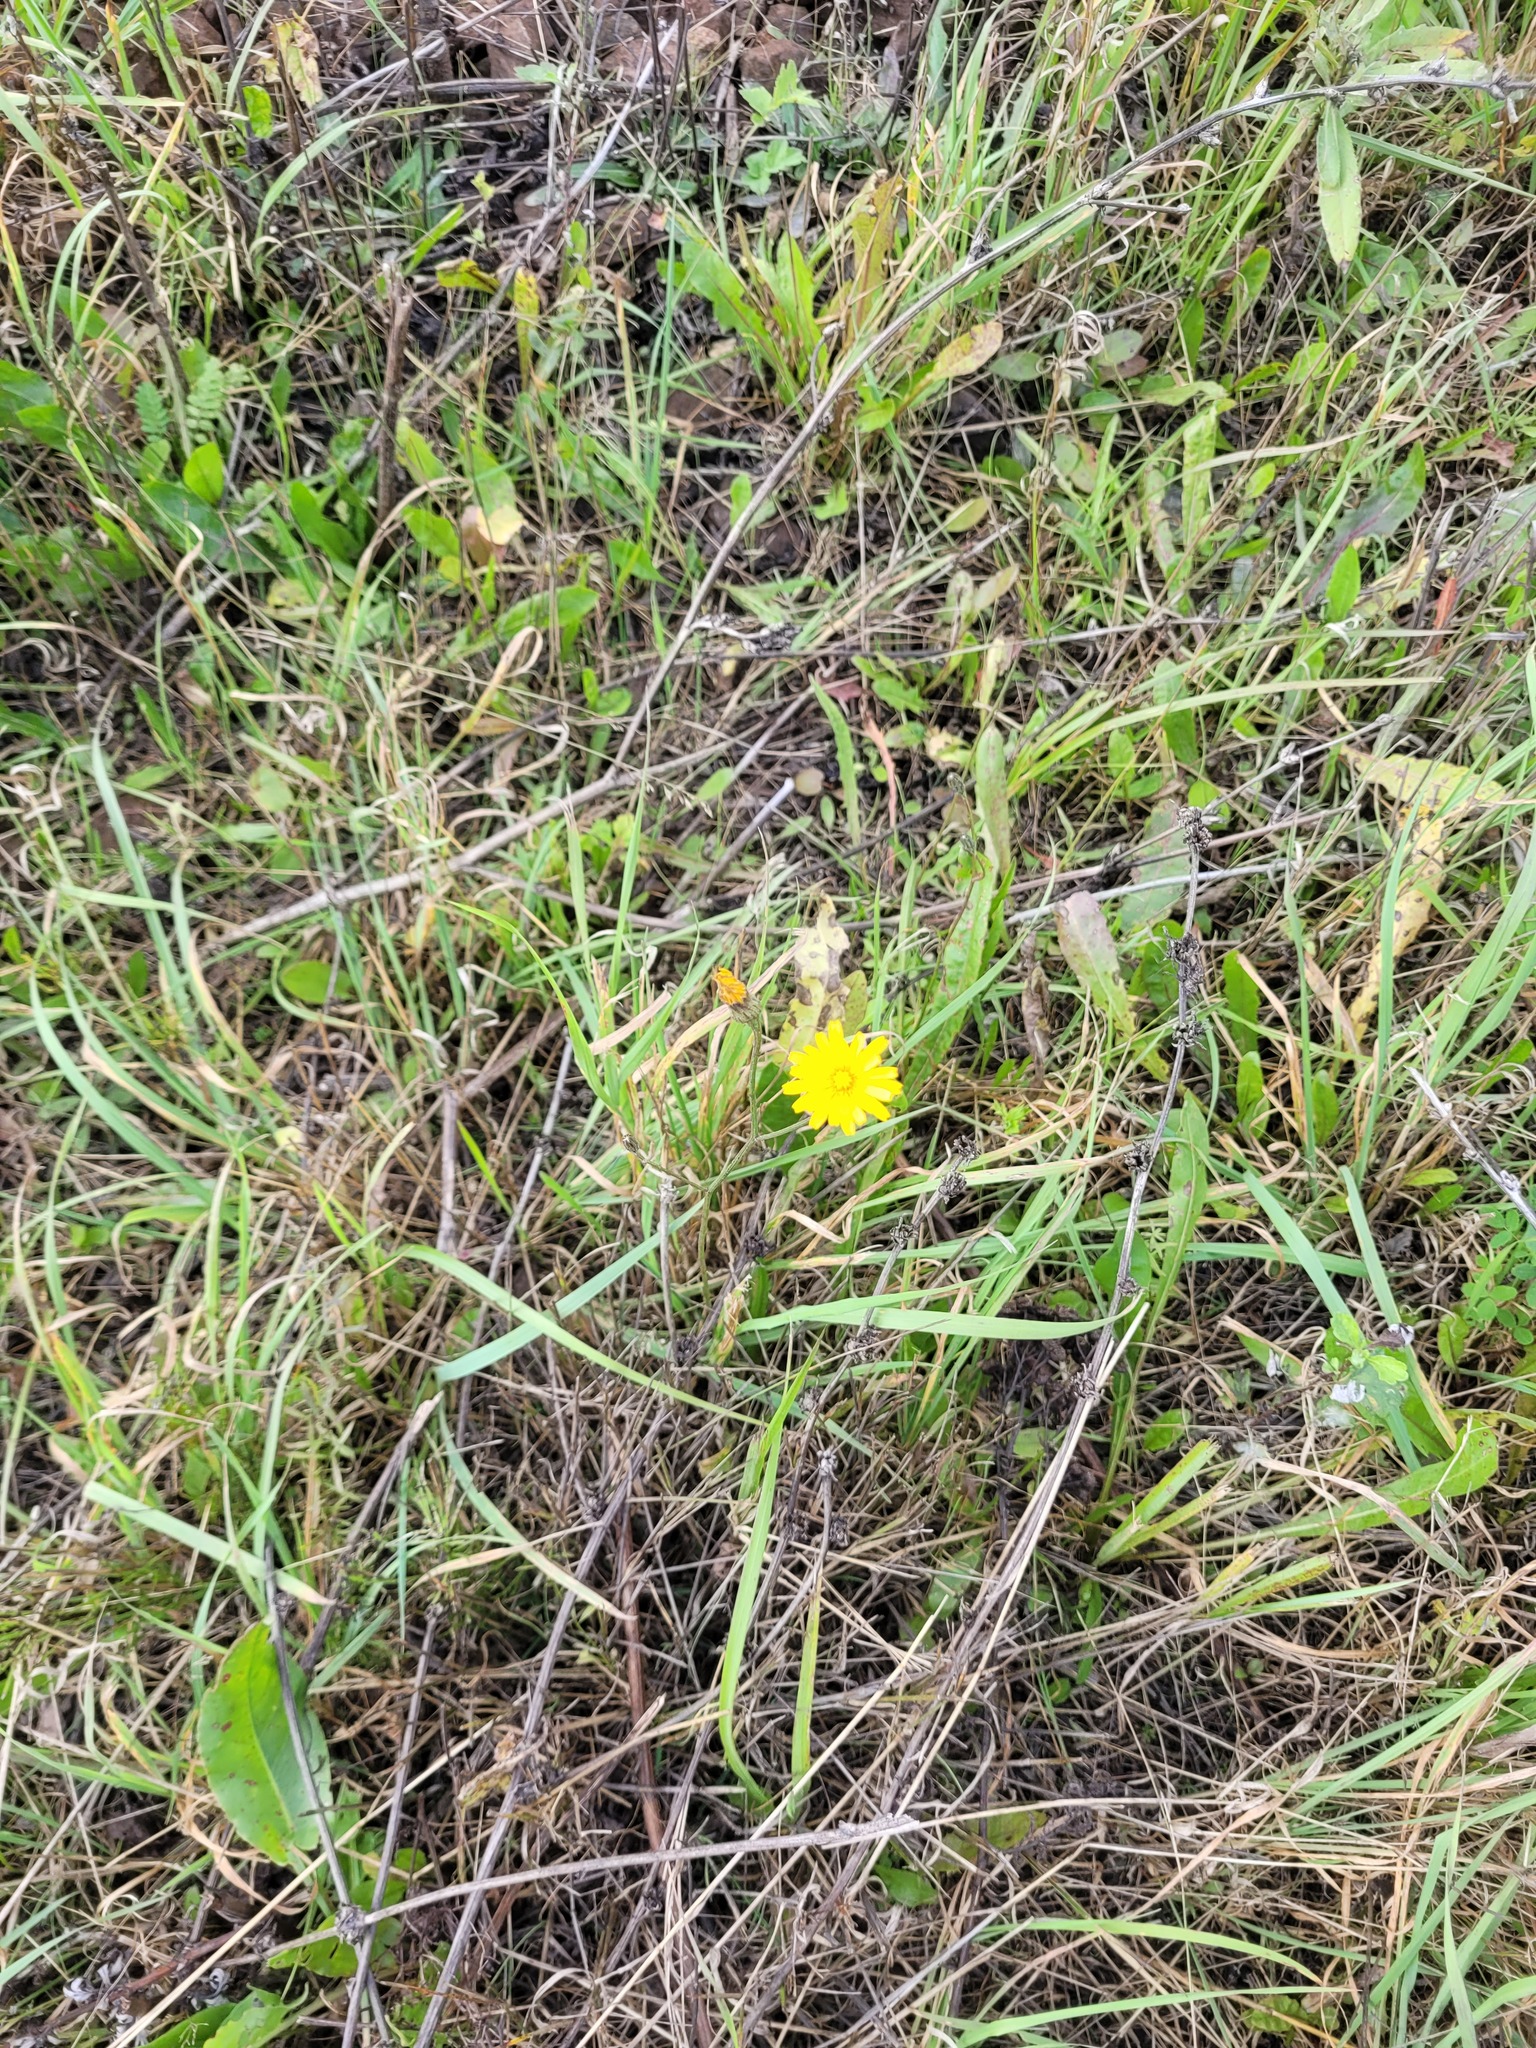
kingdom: Plantae
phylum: Tracheophyta
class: Magnoliopsida
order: Asterales
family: Asteraceae
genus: Scorzoneroides
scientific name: Scorzoneroides autumnalis
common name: Autumn hawkbit
